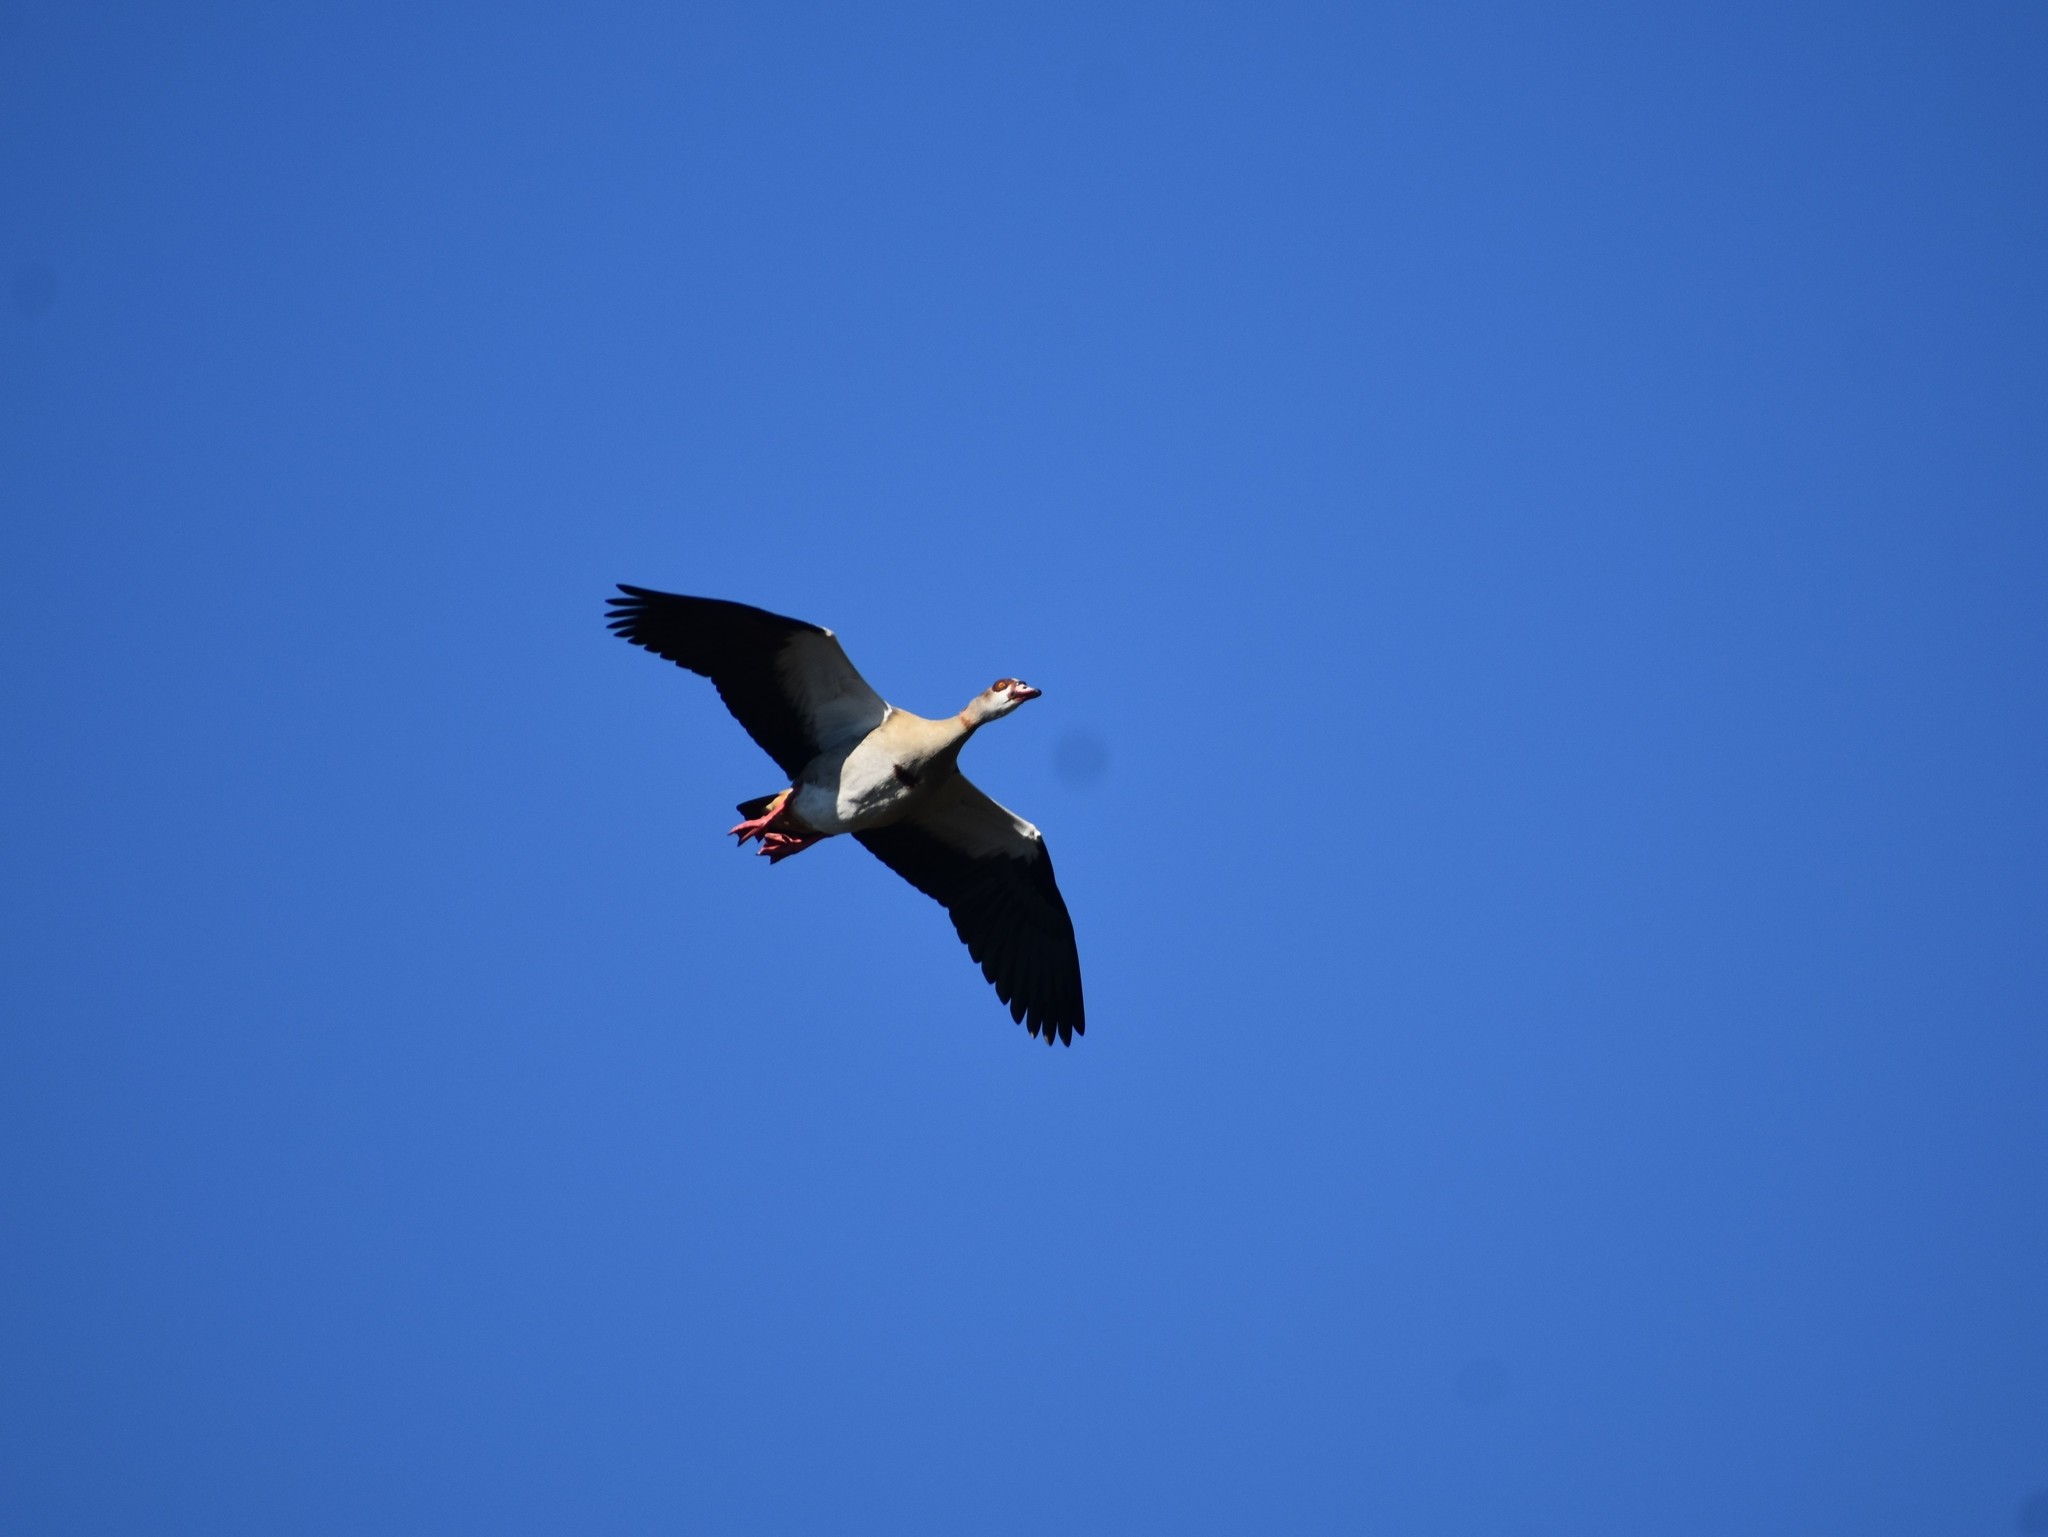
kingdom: Animalia
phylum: Chordata
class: Aves
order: Anseriformes
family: Anatidae
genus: Alopochen
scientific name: Alopochen aegyptiaca
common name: Egyptian goose
